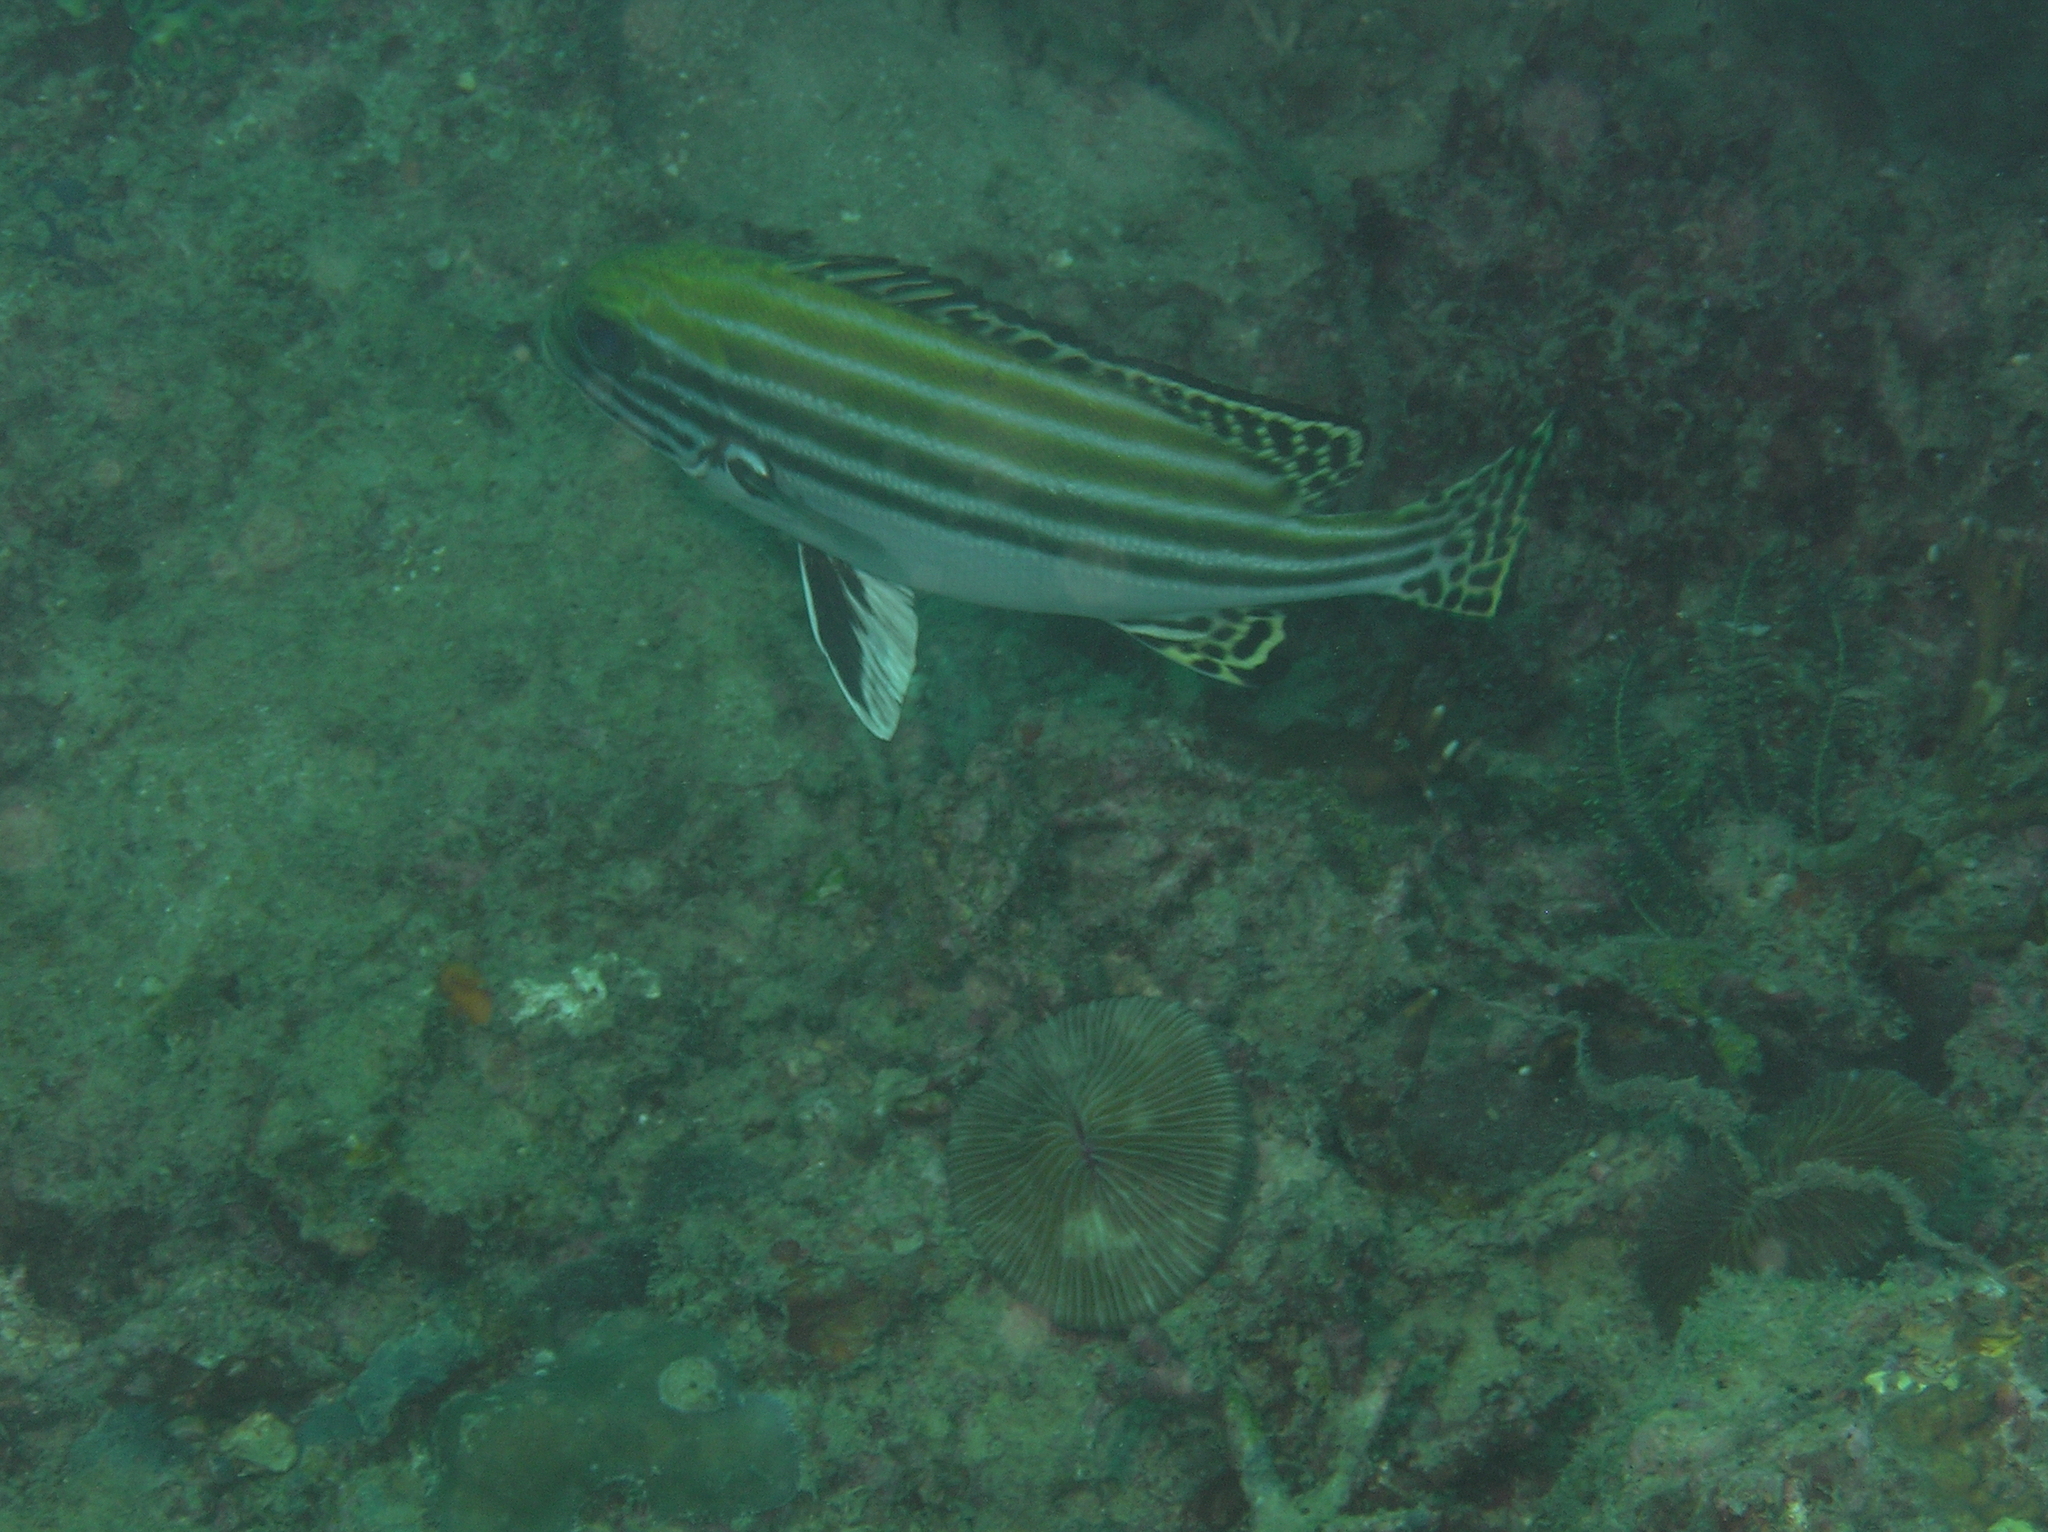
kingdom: Animalia
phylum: Chordata
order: Perciformes
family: Haemulidae
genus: Plectorhinchus
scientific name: Plectorhinchus lessonii
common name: Lesson's thicklip
